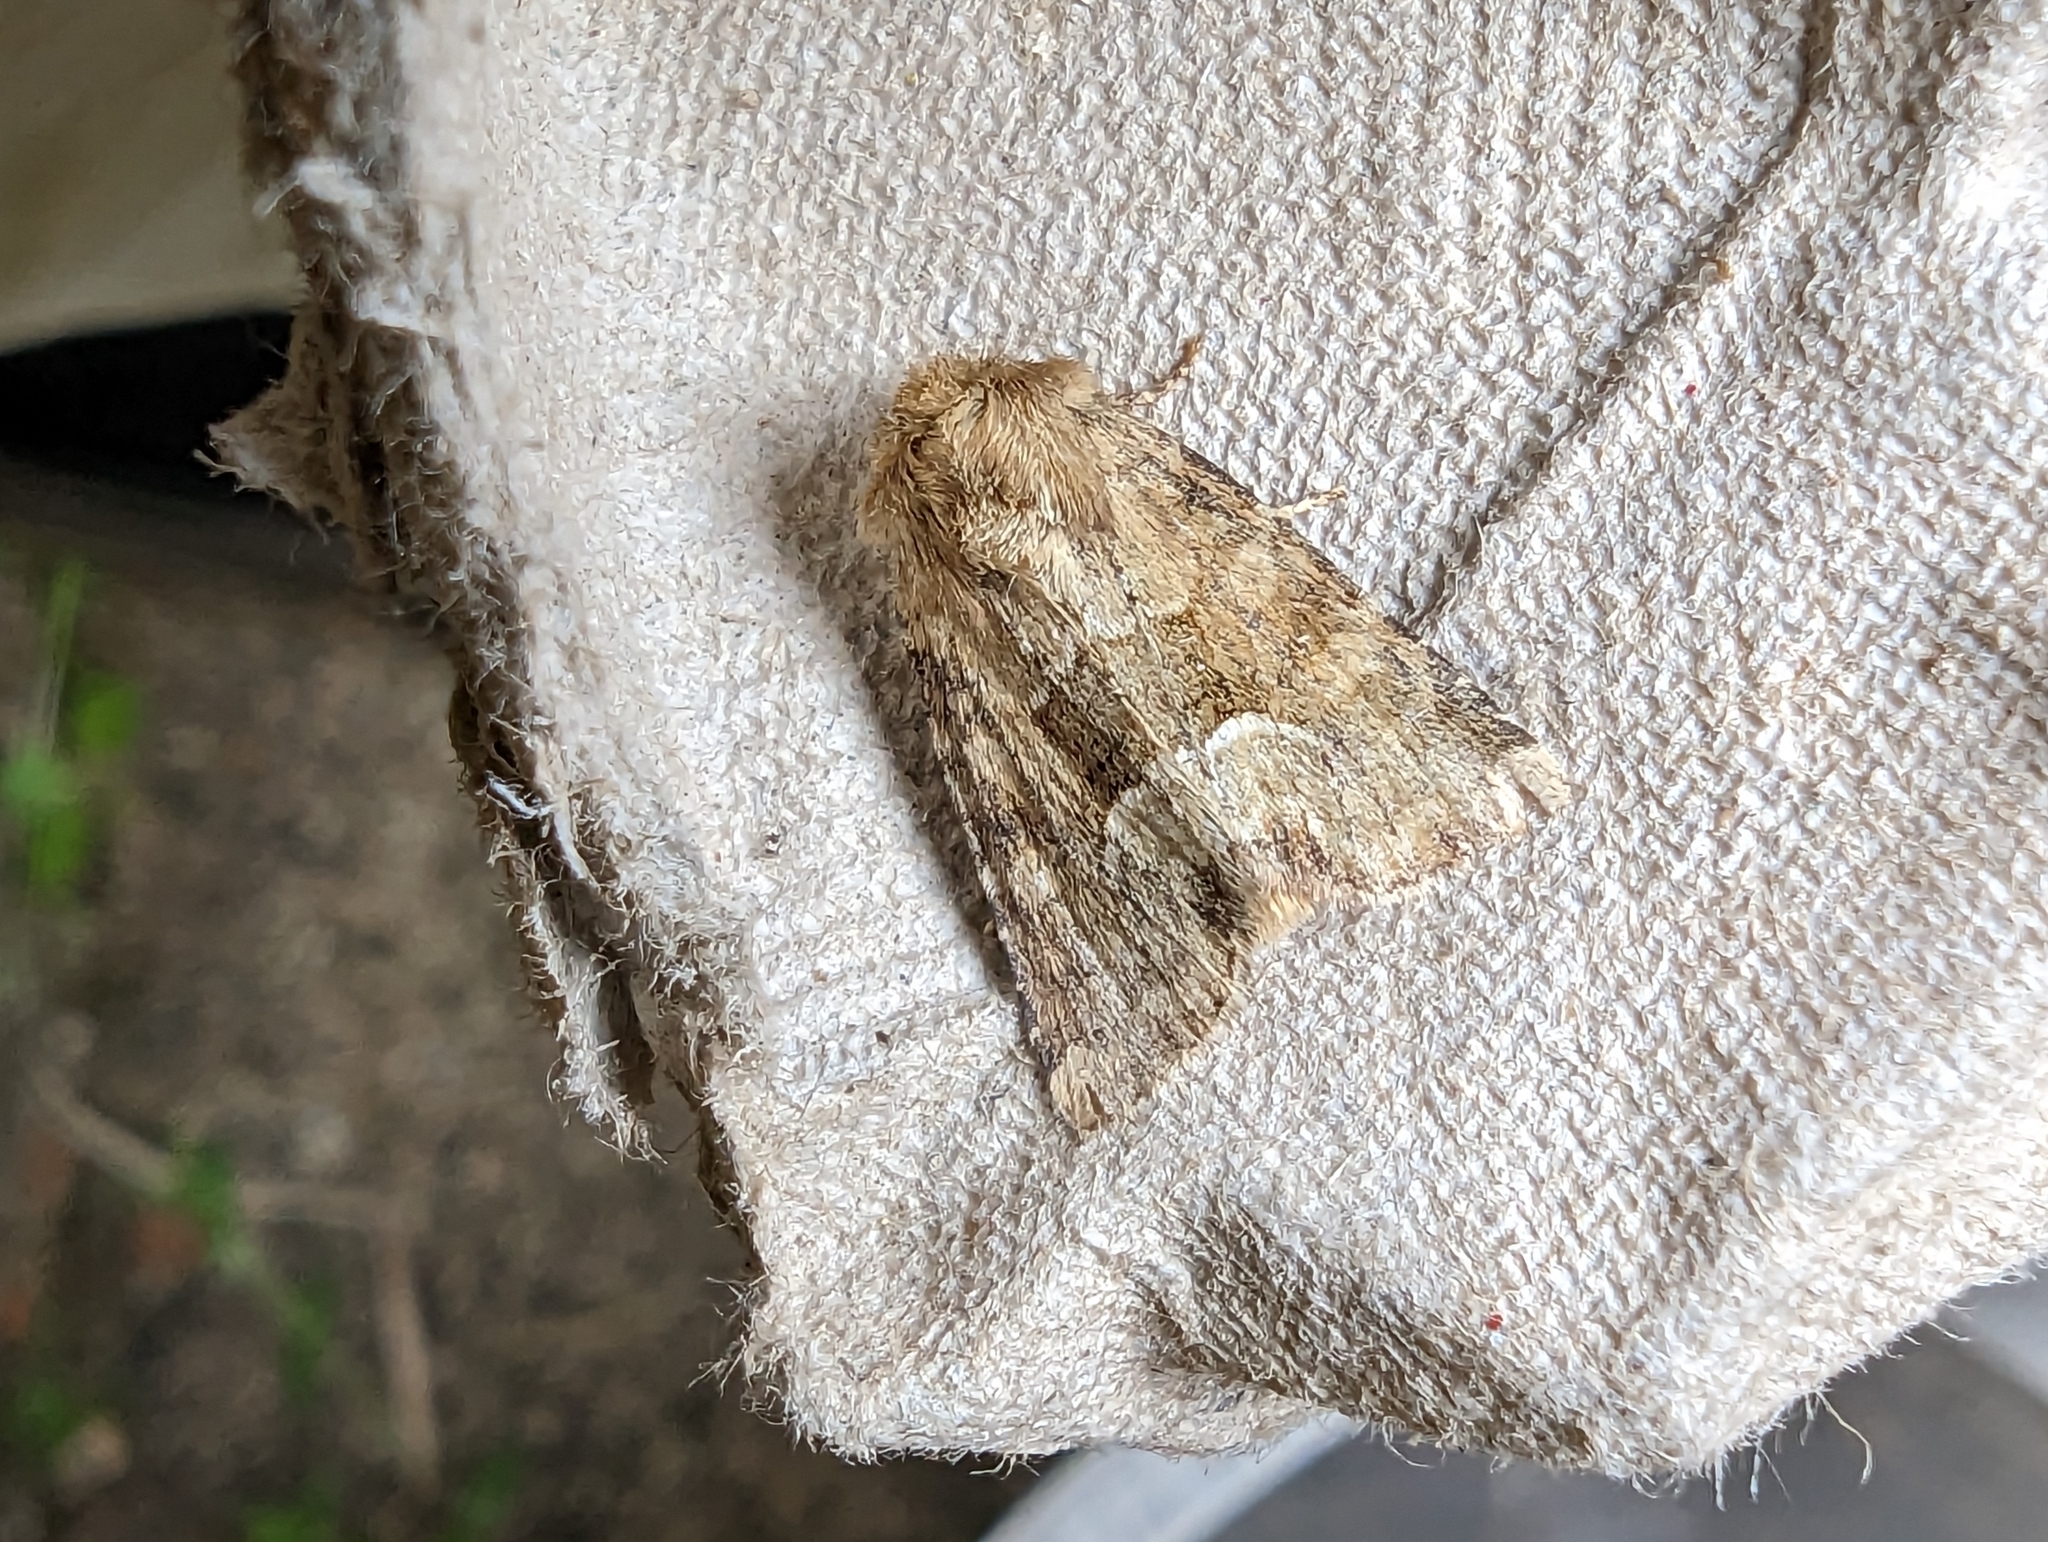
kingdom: Animalia
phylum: Arthropoda
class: Insecta
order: Lepidoptera
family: Noctuidae
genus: Oligia
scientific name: Oligia fasciuncula
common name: Middle-barred minor
